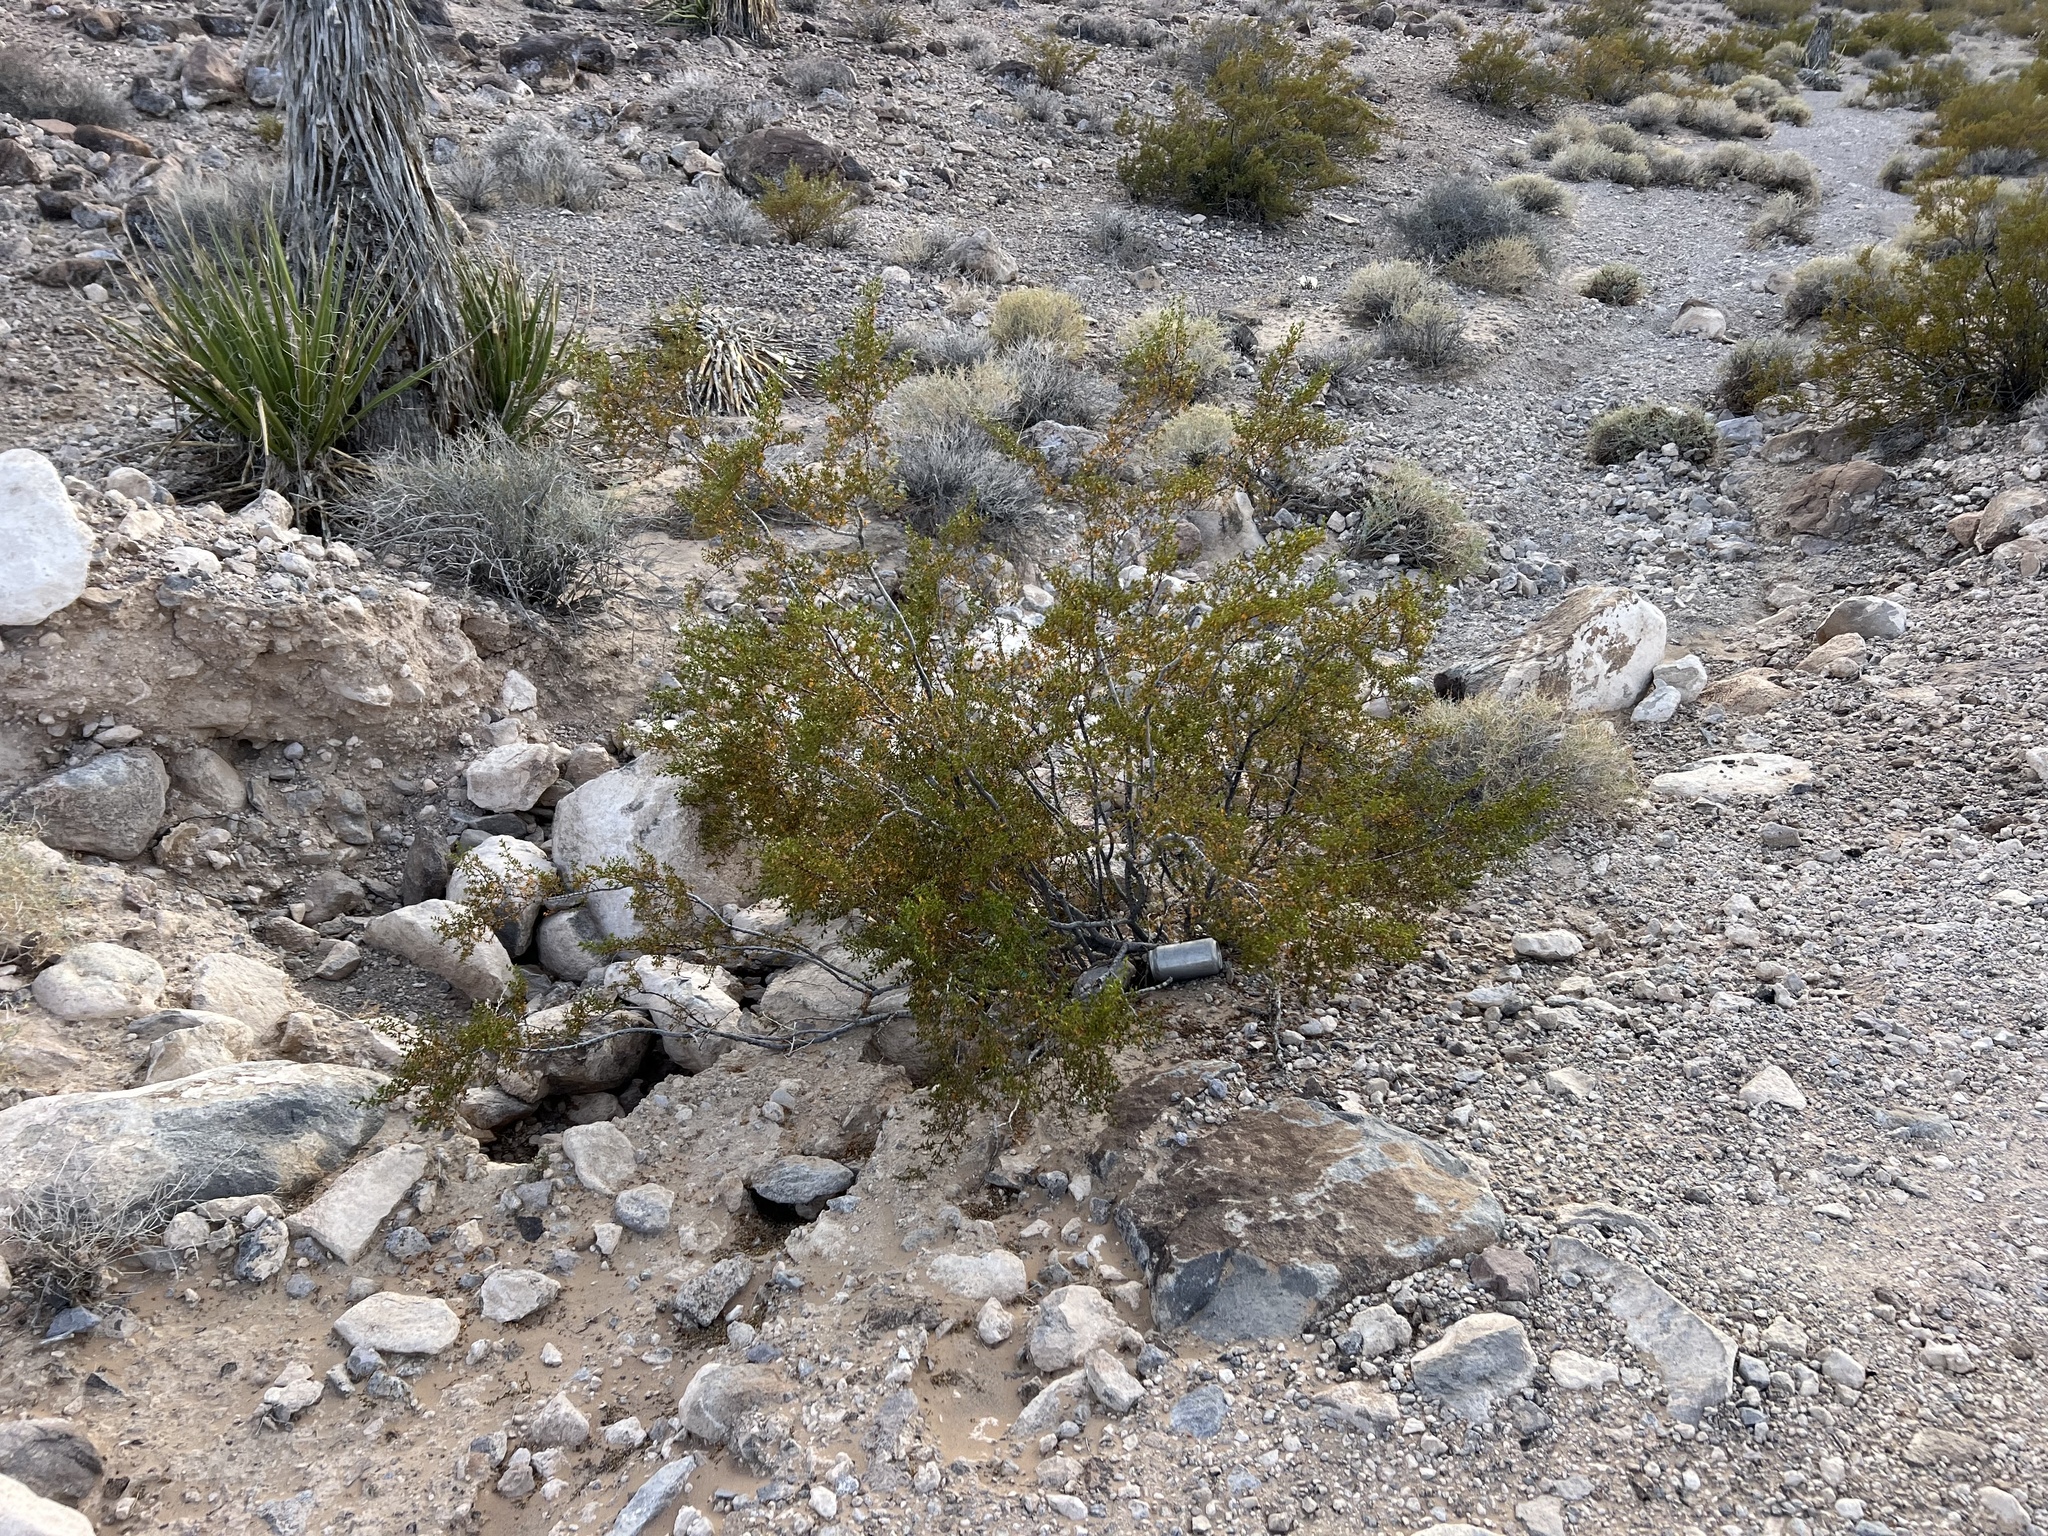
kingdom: Plantae
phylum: Tracheophyta
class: Magnoliopsida
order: Zygophyllales
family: Zygophyllaceae
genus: Larrea
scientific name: Larrea tridentata
